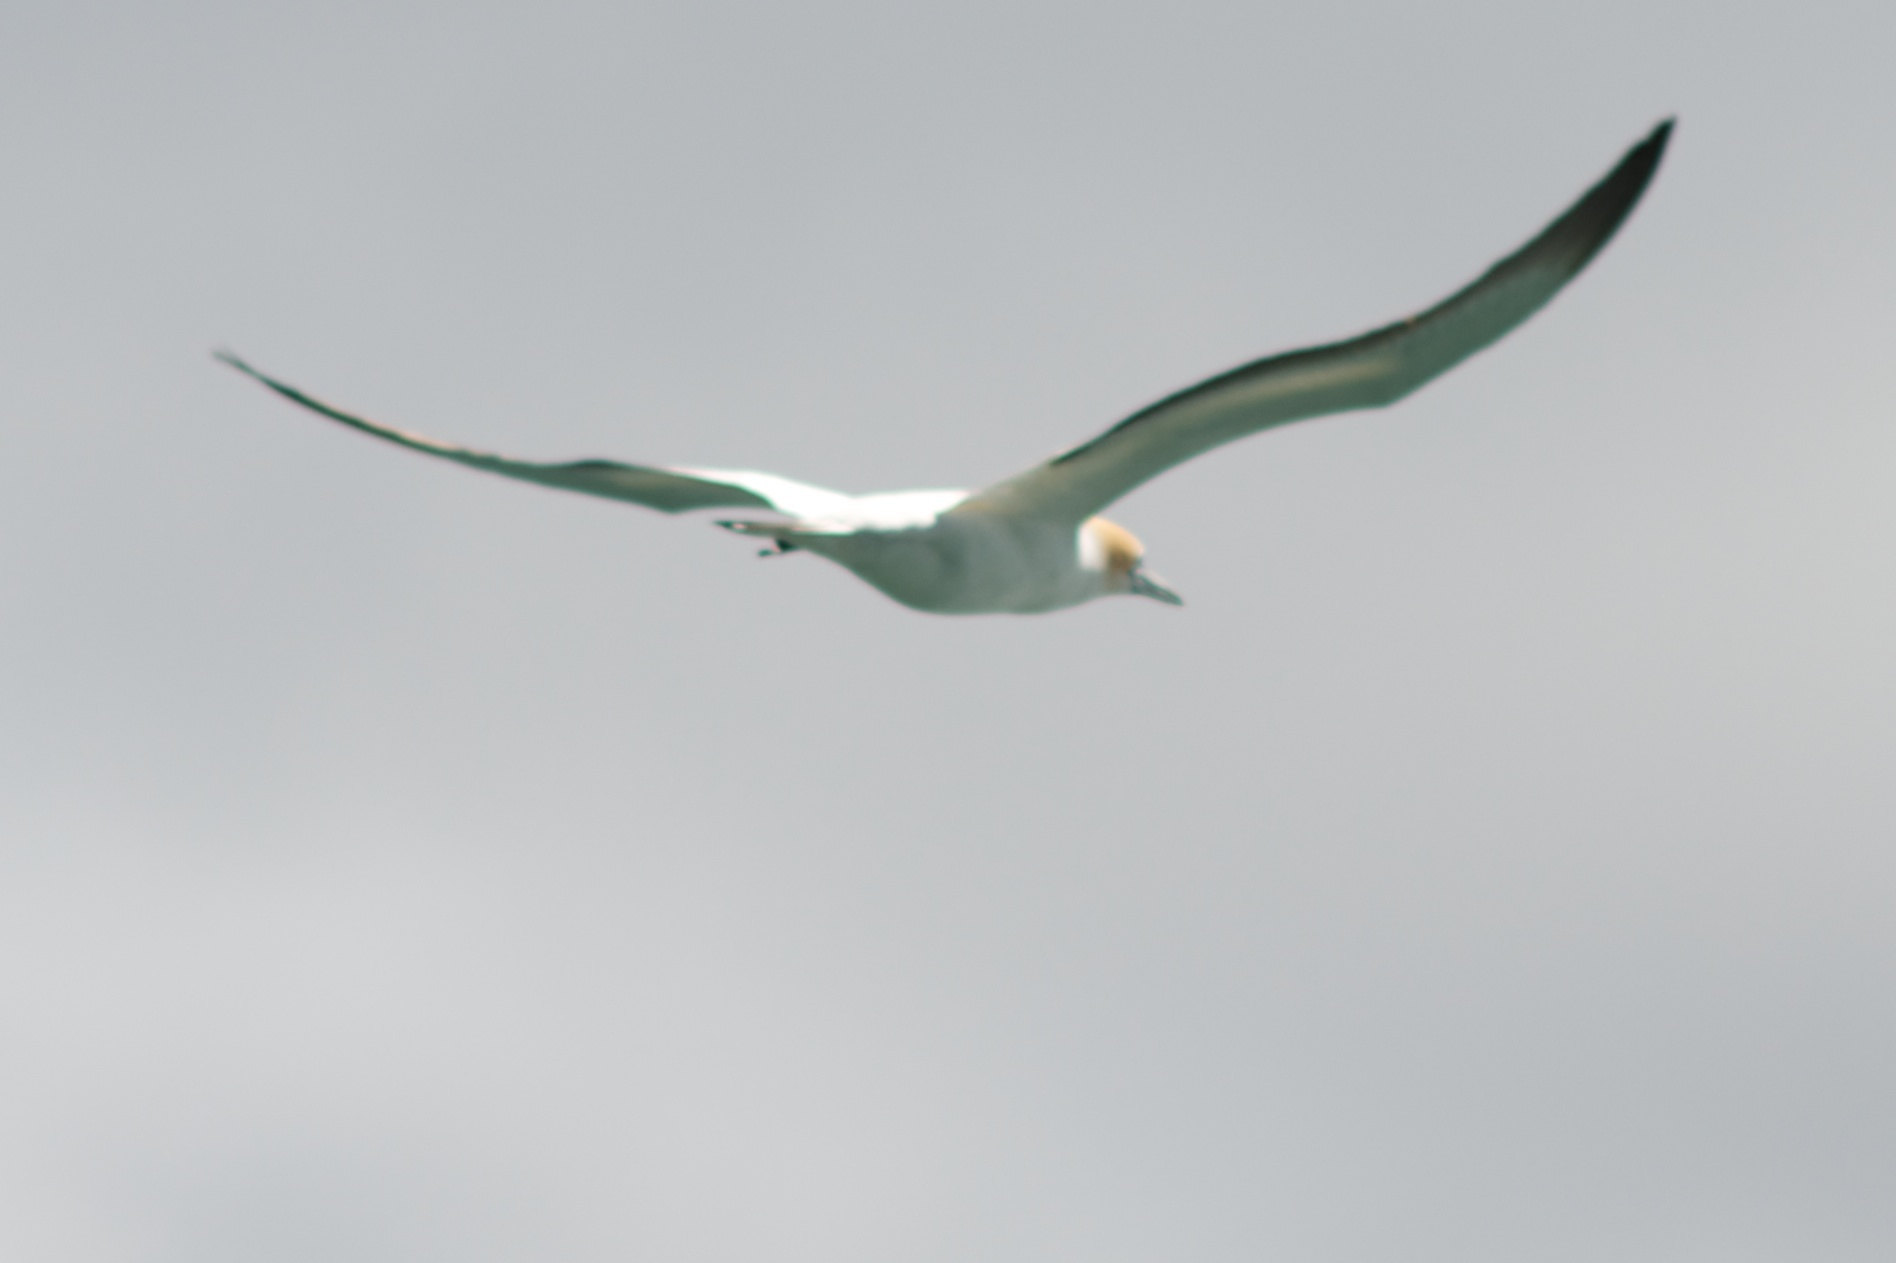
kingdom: Animalia
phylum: Chordata
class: Aves
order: Suliformes
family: Sulidae
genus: Morus
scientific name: Morus serrator
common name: Australasian gannet
